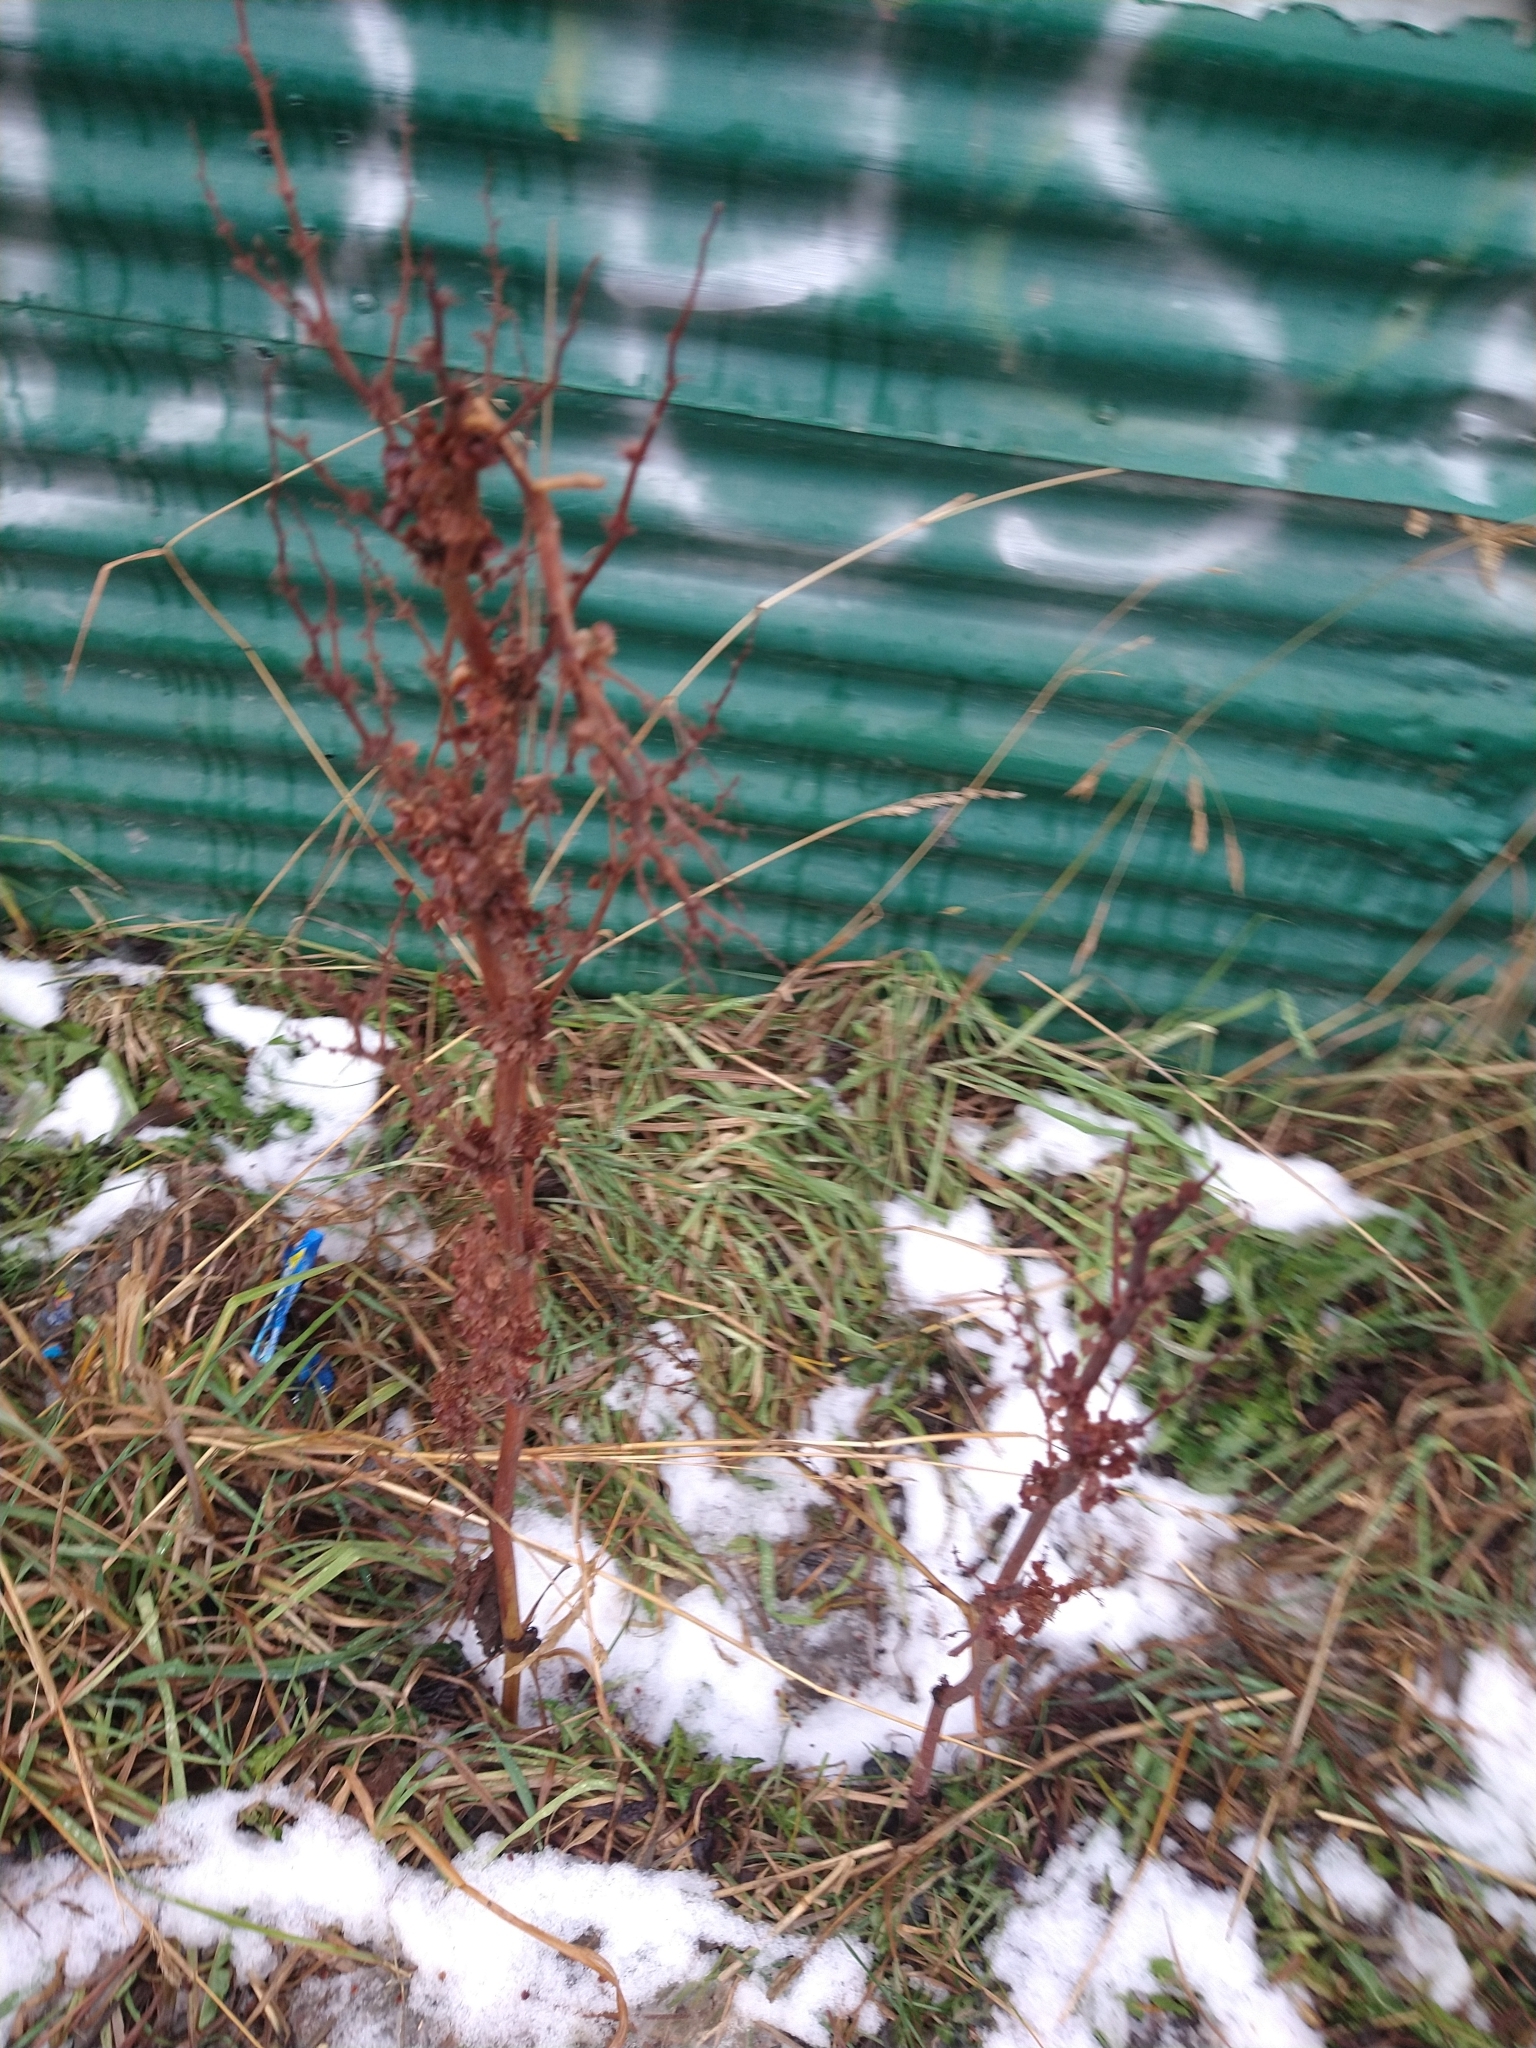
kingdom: Plantae
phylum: Tracheophyta
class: Magnoliopsida
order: Caryophyllales
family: Polygonaceae
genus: Rumex
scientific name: Rumex crispus
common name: Curled dock
